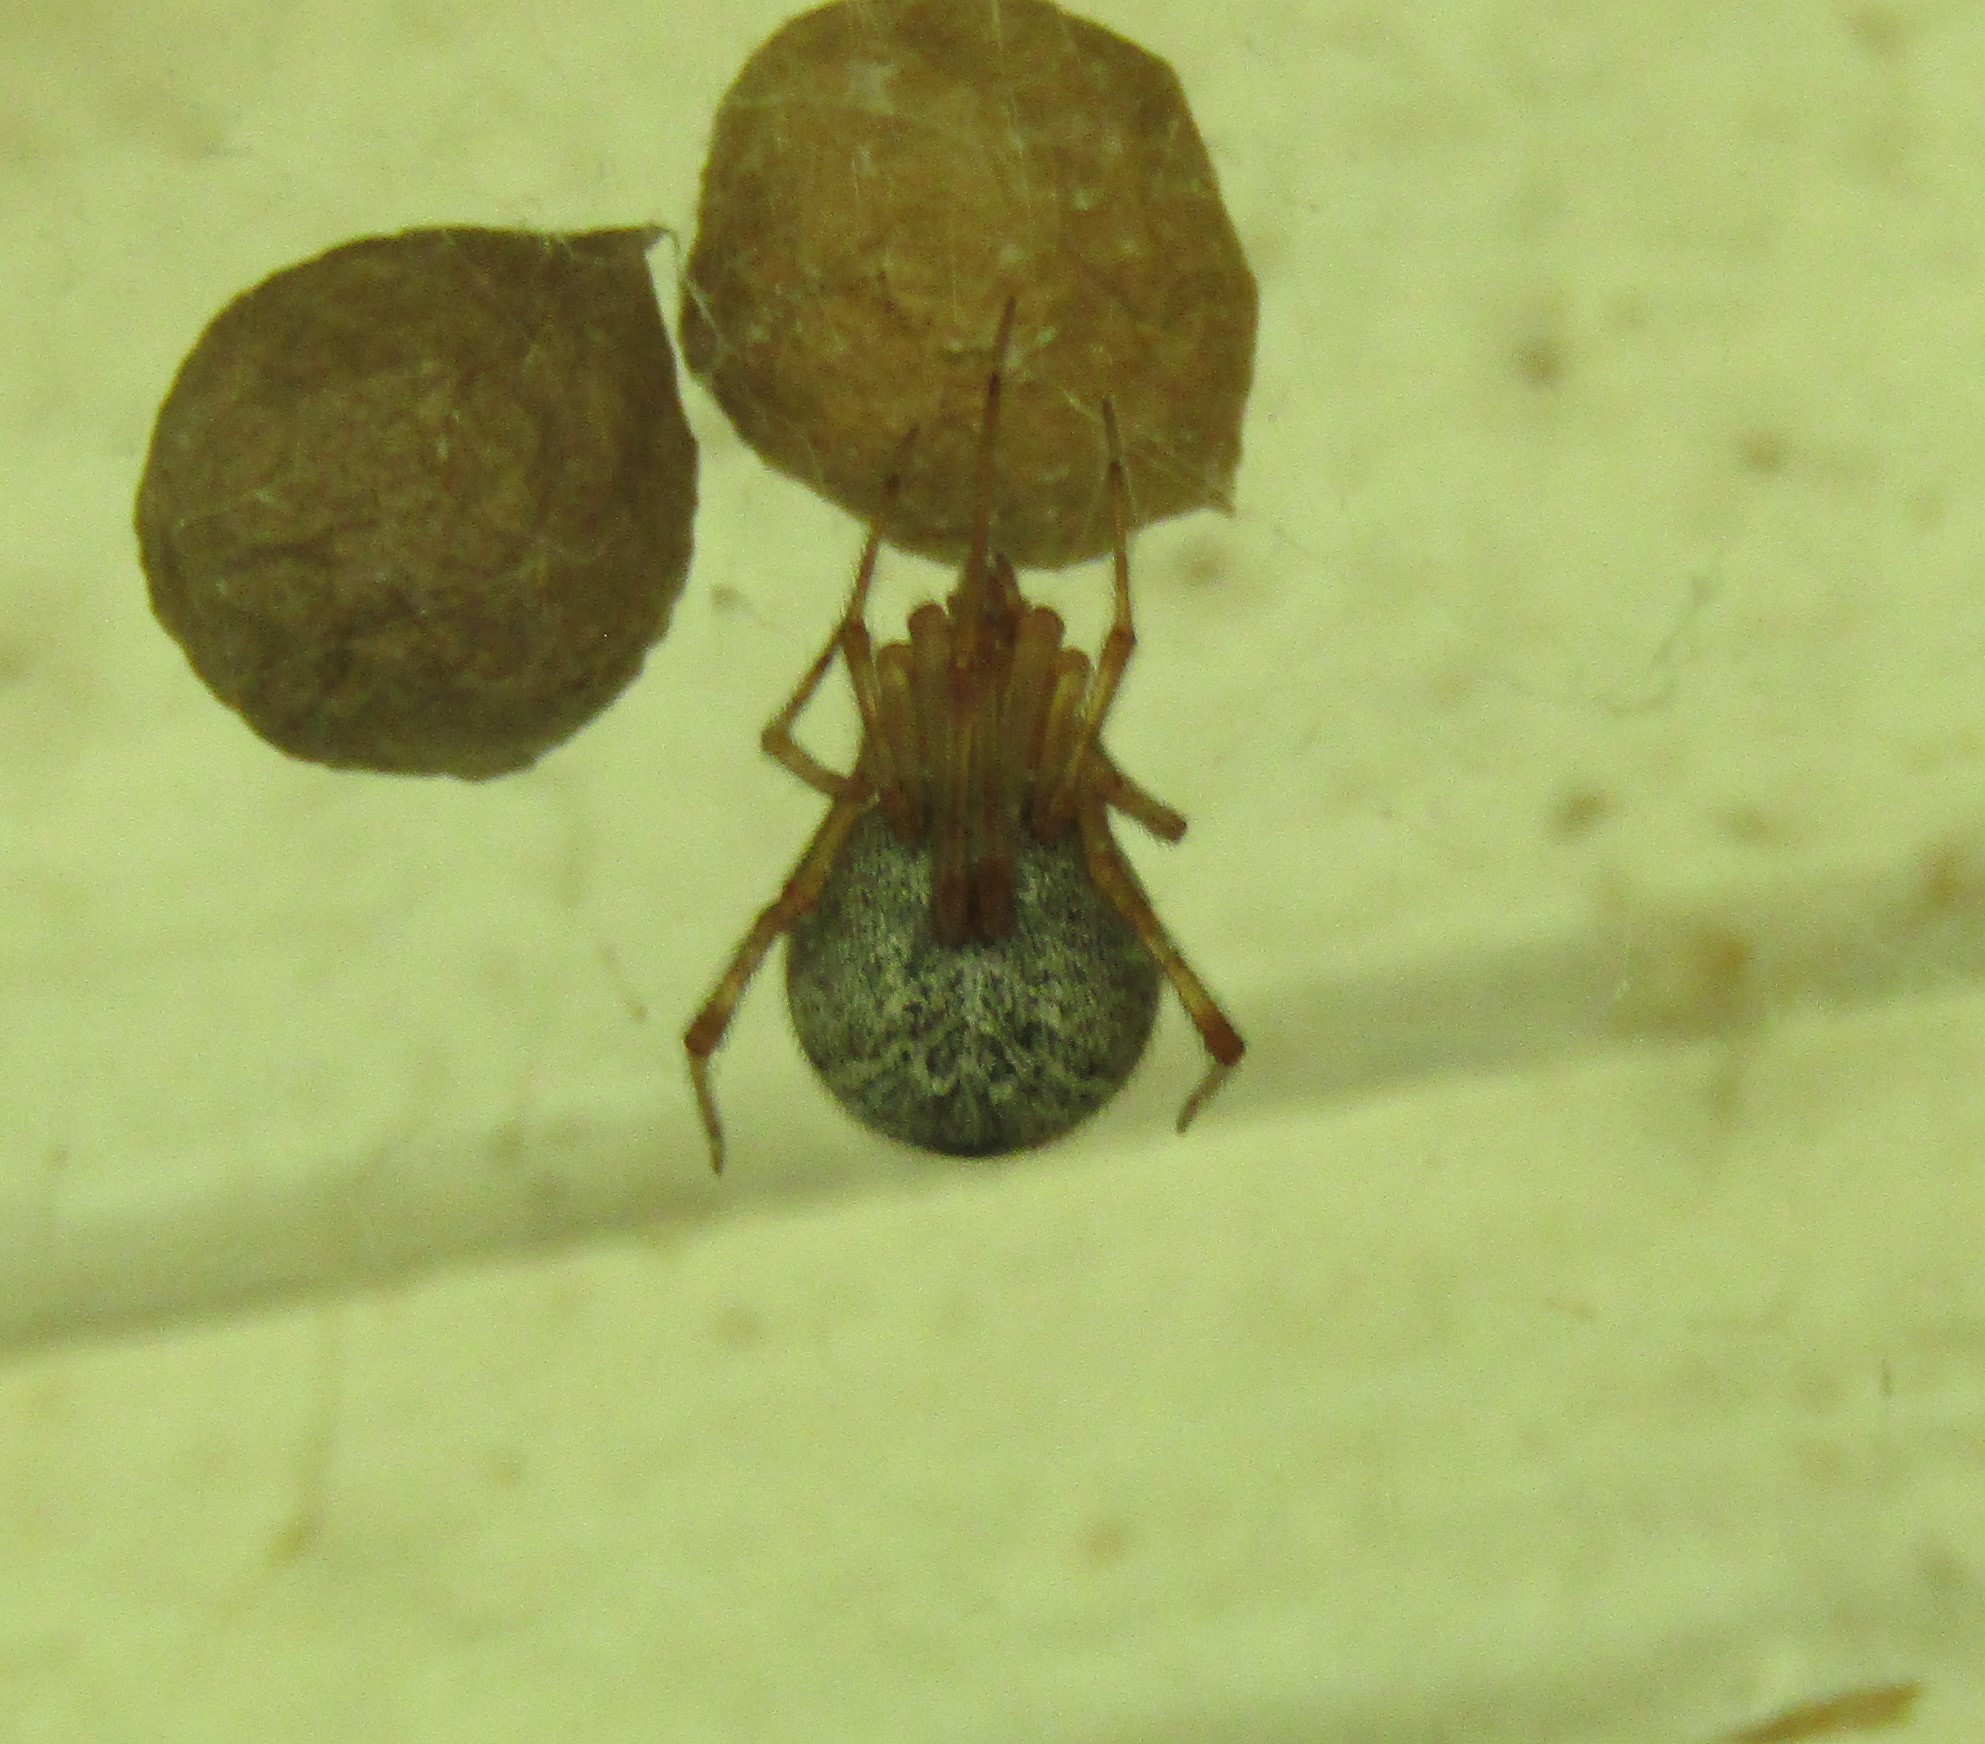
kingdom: Animalia
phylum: Arthropoda
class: Arachnida
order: Araneae
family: Theridiidae
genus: Parasteatoda
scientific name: Parasteatoda tepidariorum
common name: Common house spider
